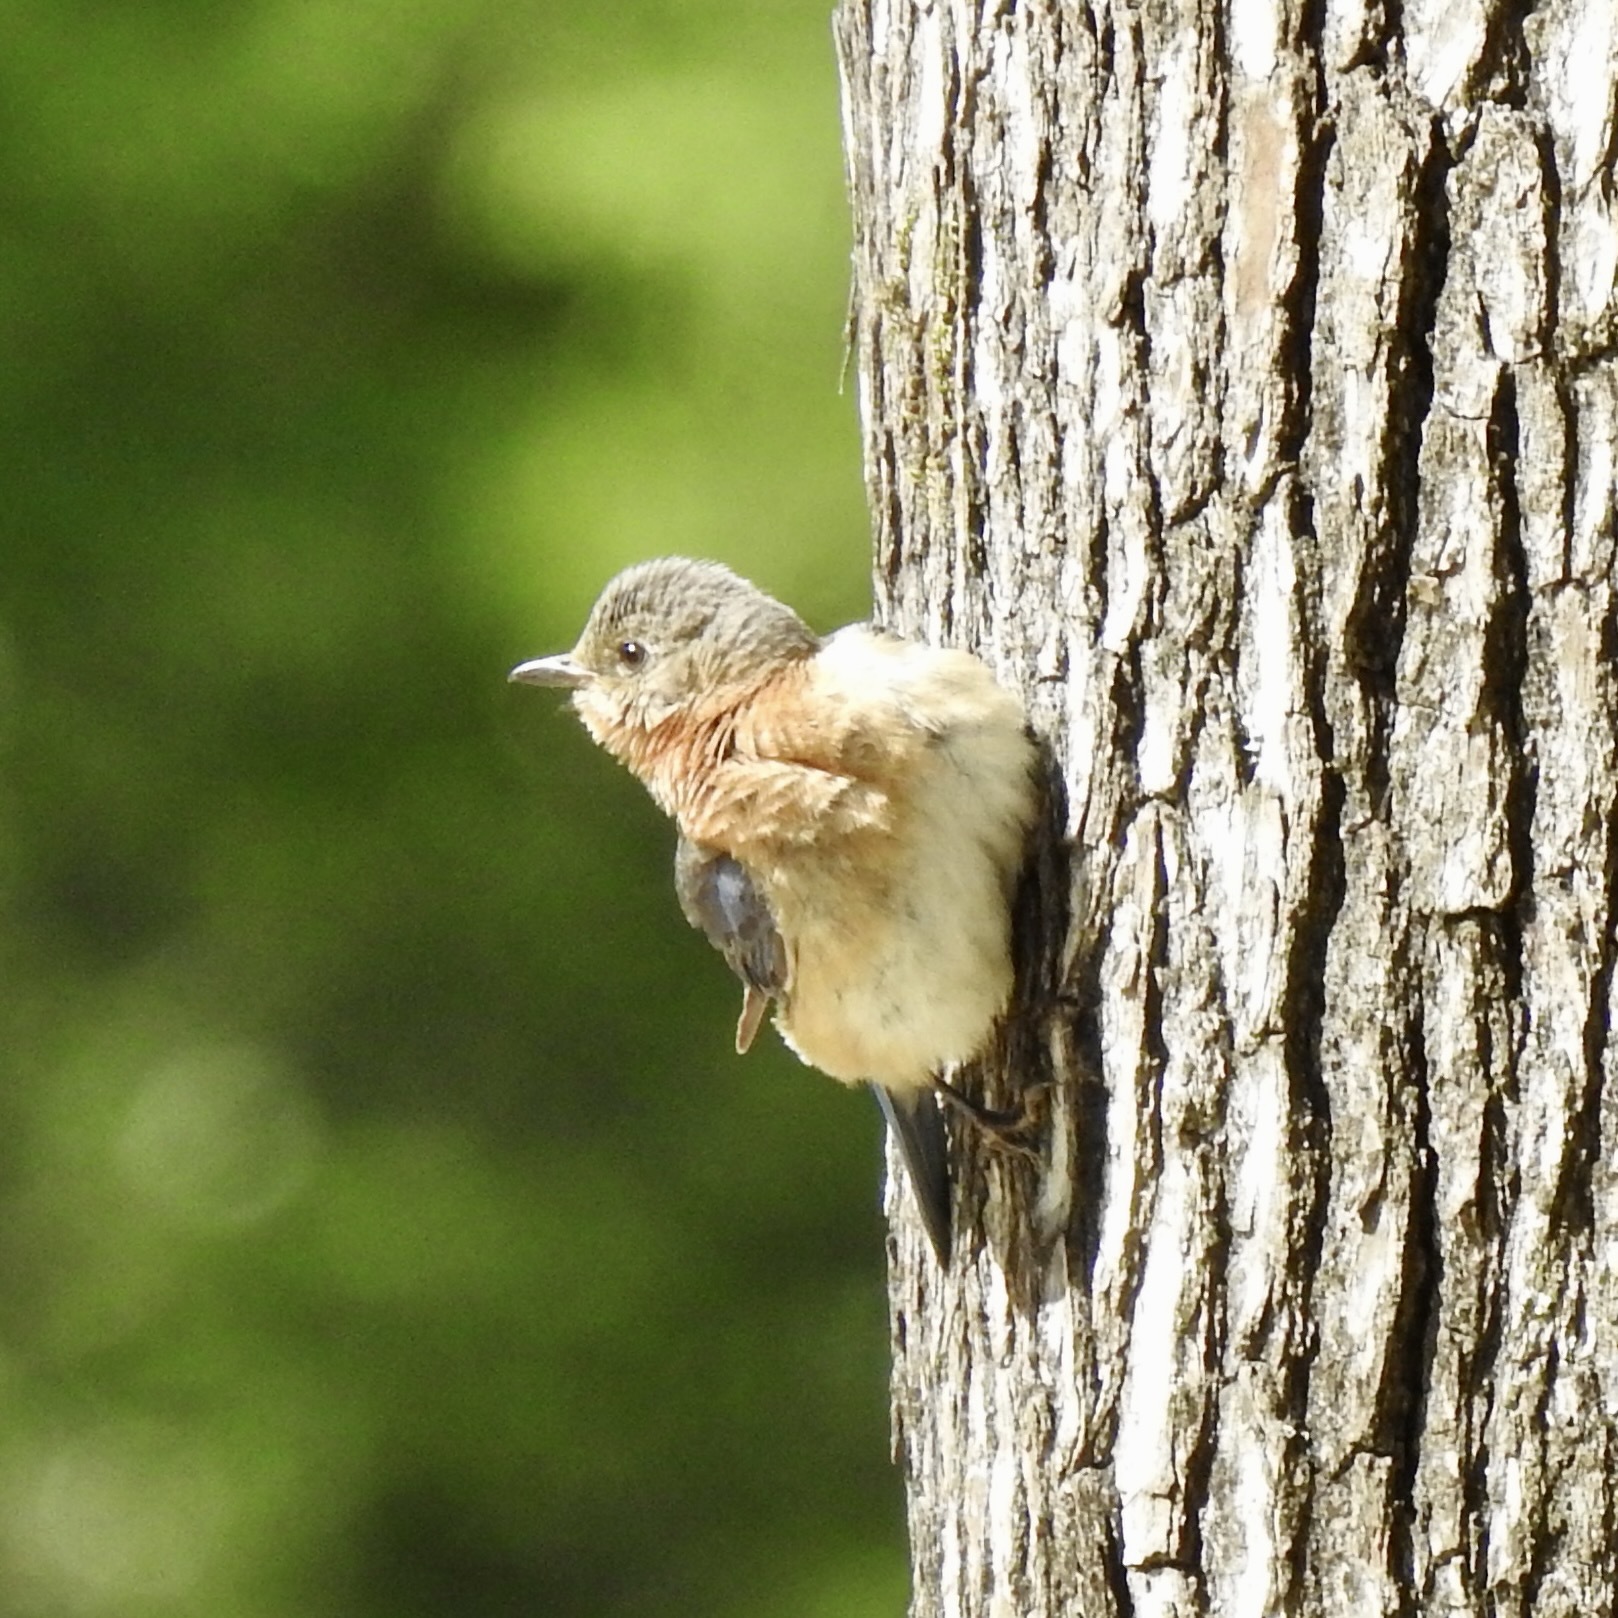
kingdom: Animalia
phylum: Chordata
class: Aves
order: Passeriformes
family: Turdidae
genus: Sialia
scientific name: Sialia sialis
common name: Eastern bluebird
